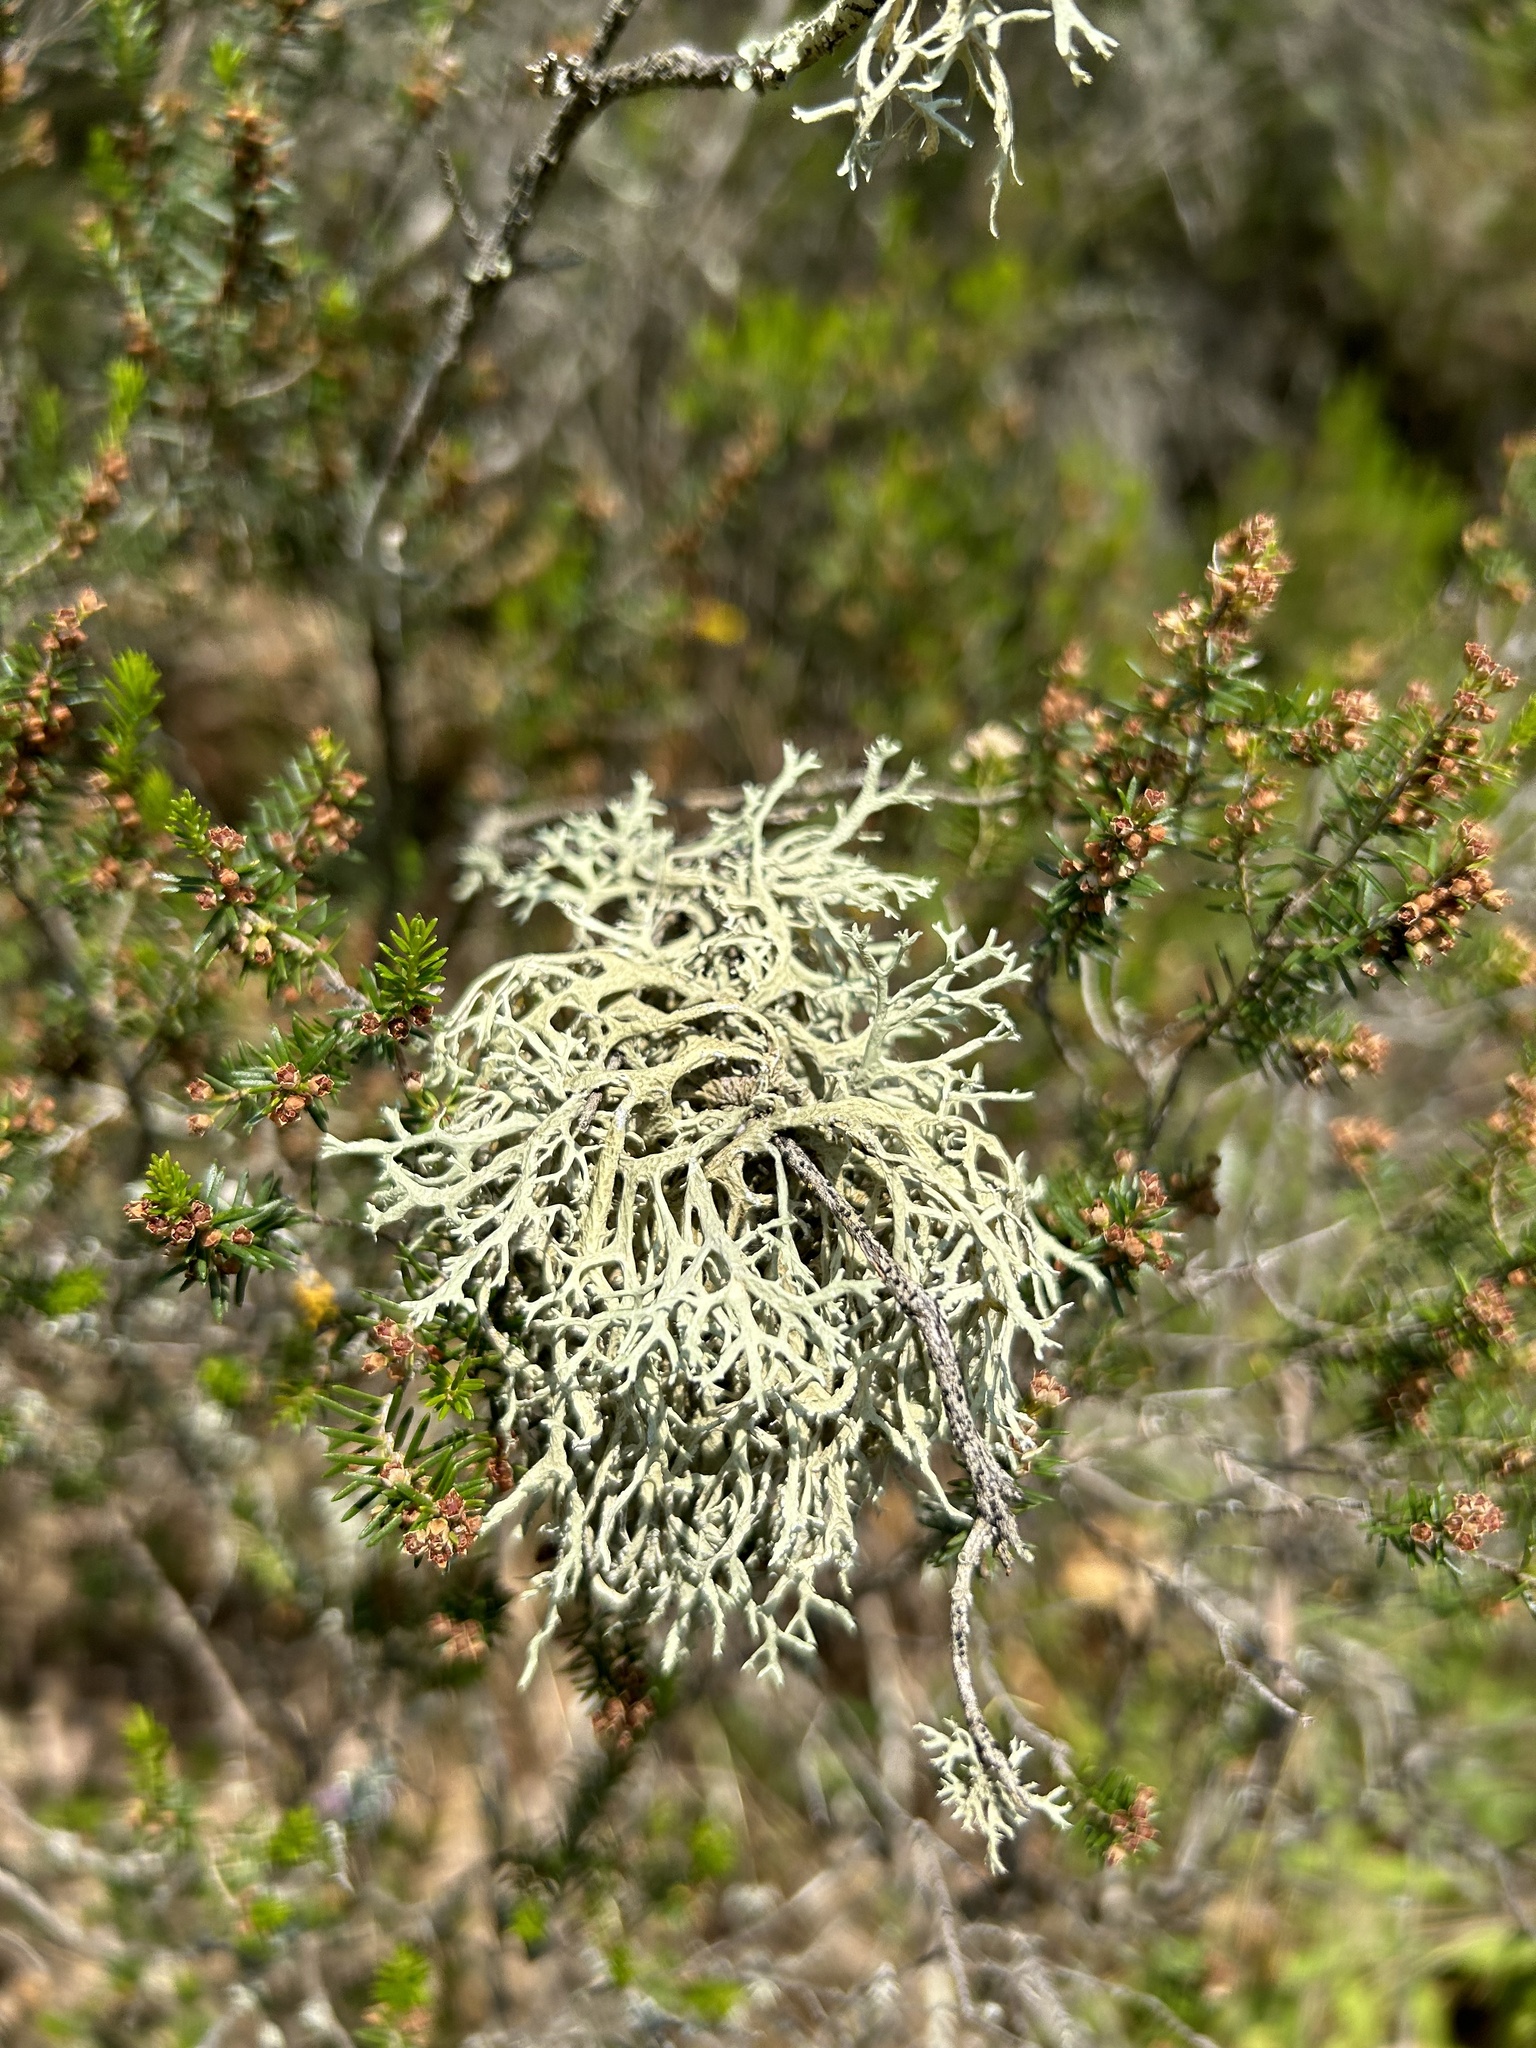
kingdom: Fungi
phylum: Ascomycota
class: Lecanoromycetes
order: Lecanorales
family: Parmeliaceae
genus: Evernia
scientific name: Evernia prunastri
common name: Oak moss
